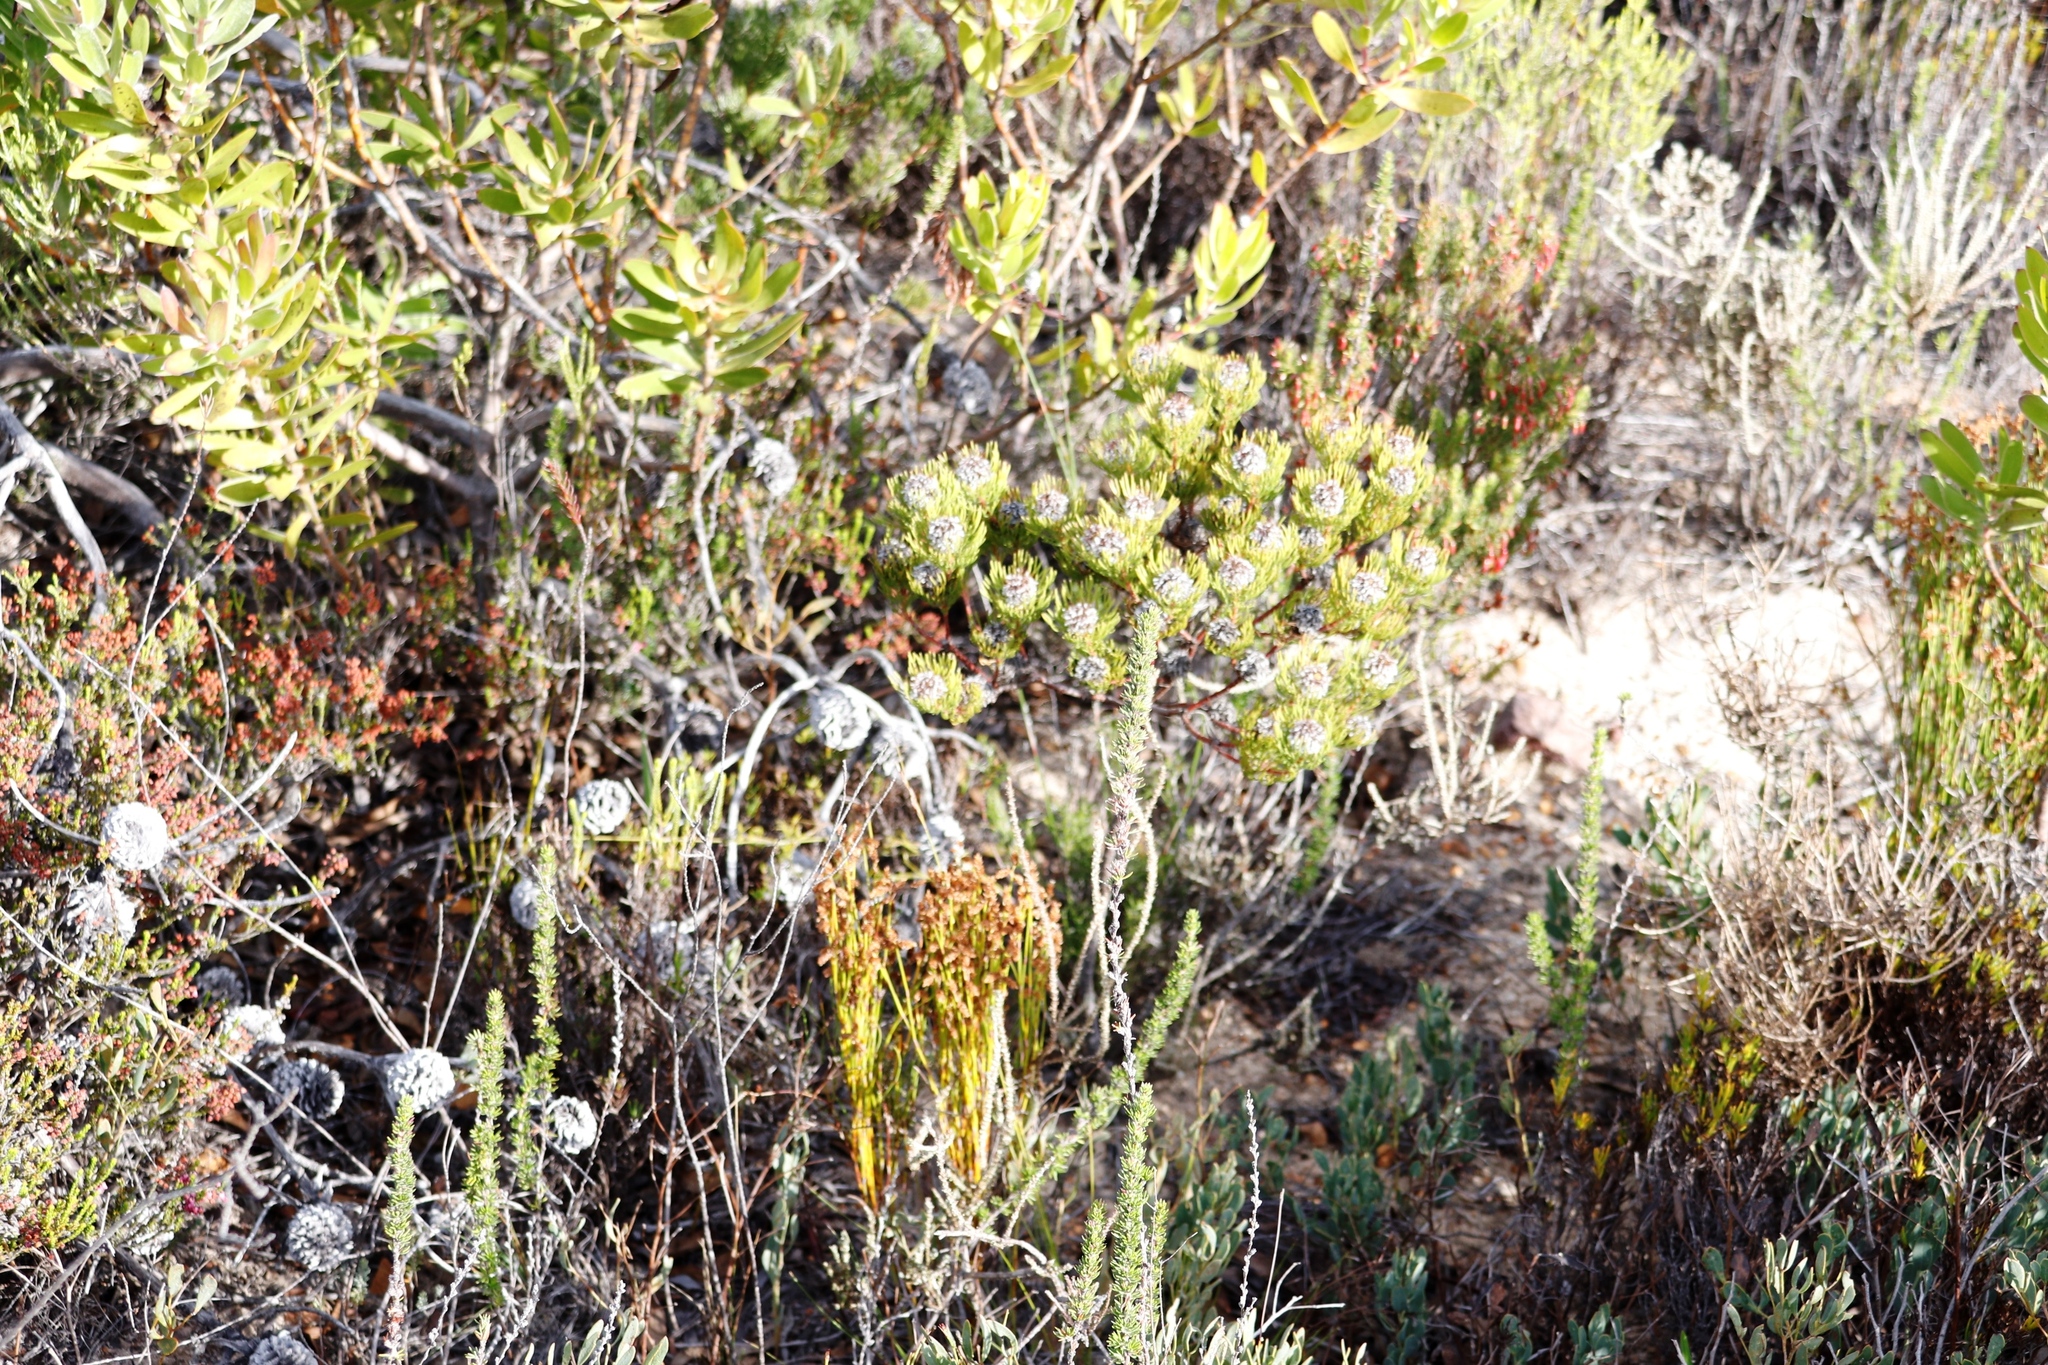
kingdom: Plantae
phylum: Tracheophyta
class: Magnoliopsida
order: Proteales
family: Proteaceae
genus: Serruria
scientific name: Serruria villosa
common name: Golden spiderhead
